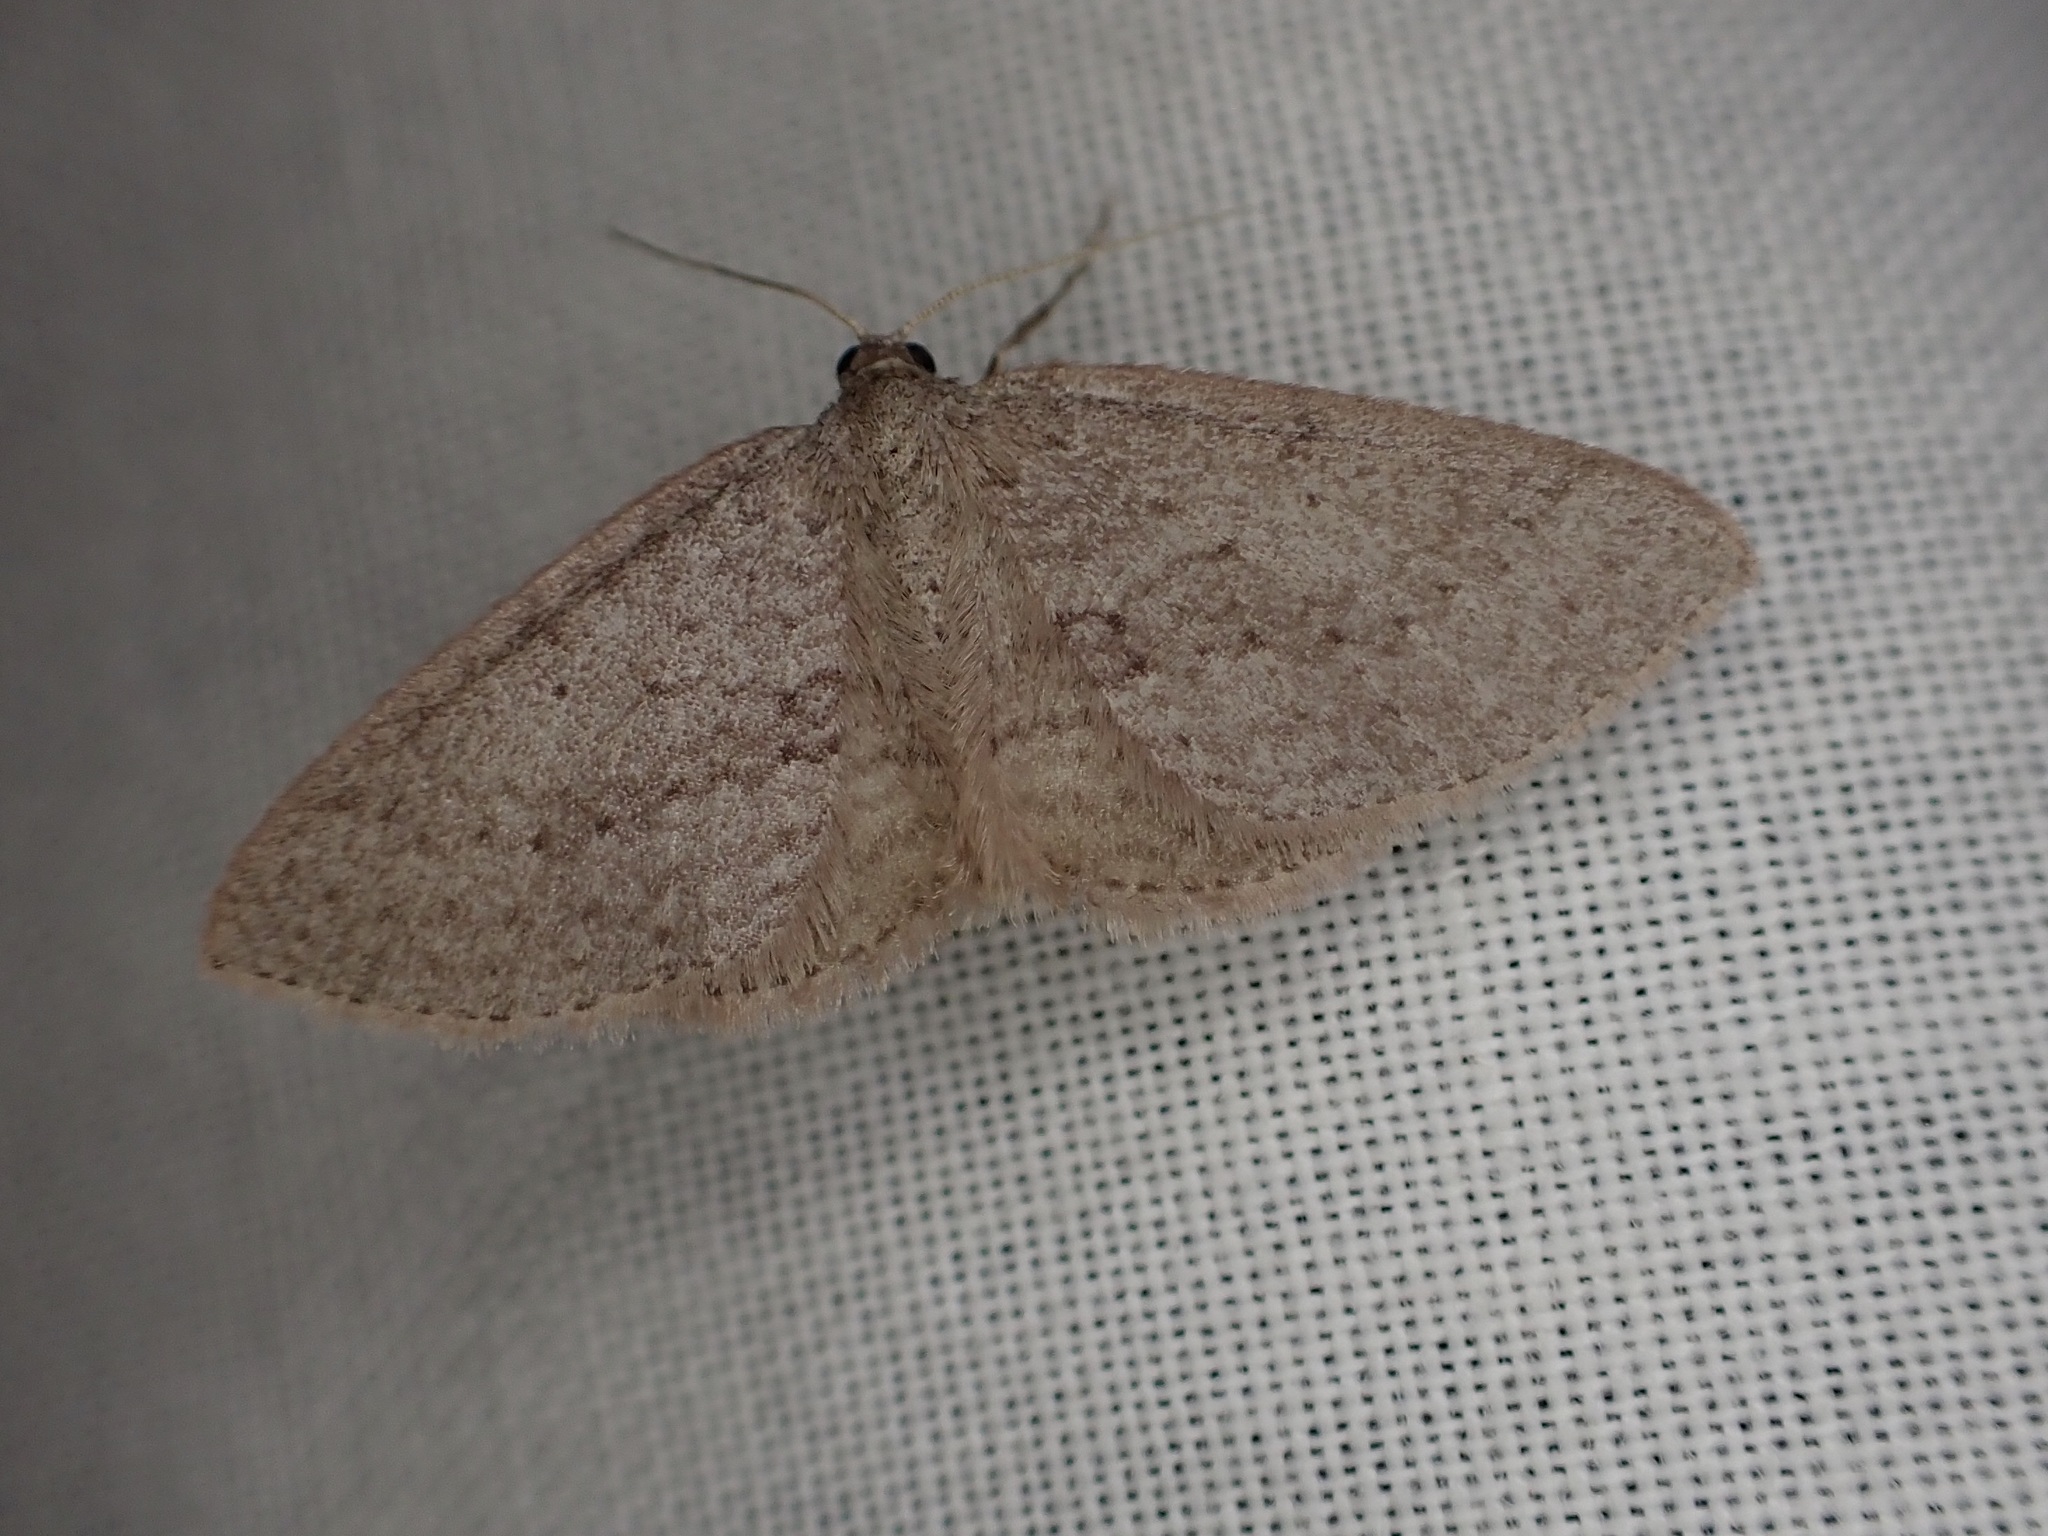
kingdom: Animalia
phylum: Arthropoda
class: Insecta
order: Lepidoptera
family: Geometridae
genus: Poecilasthena
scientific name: Poecilasthena schistaria
